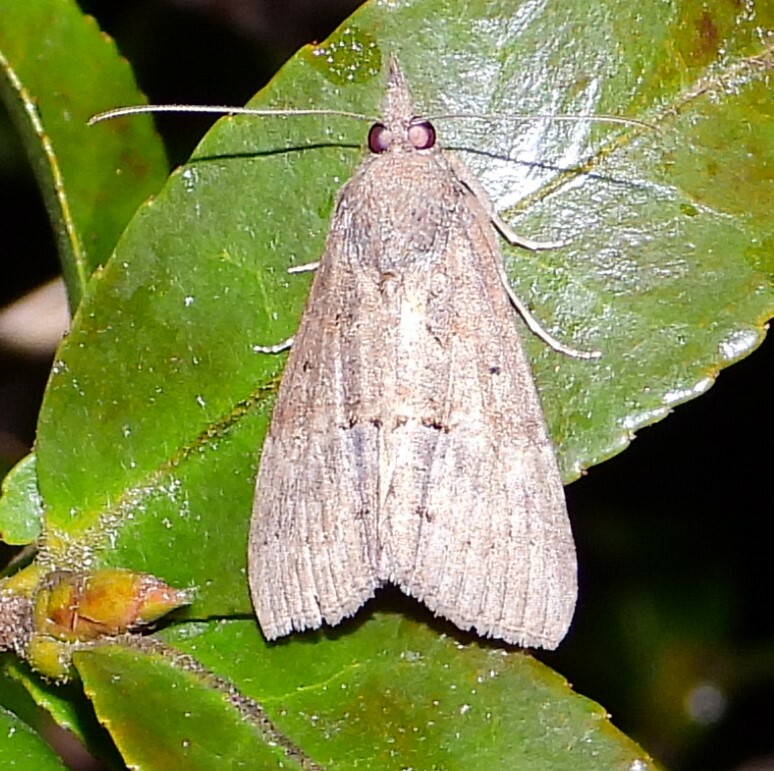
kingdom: Animalia
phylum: Arthropoda
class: Insecta
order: Lepidoptera
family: Erebidae
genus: Hypena
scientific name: Hypena scabra
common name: Green cloverworm
